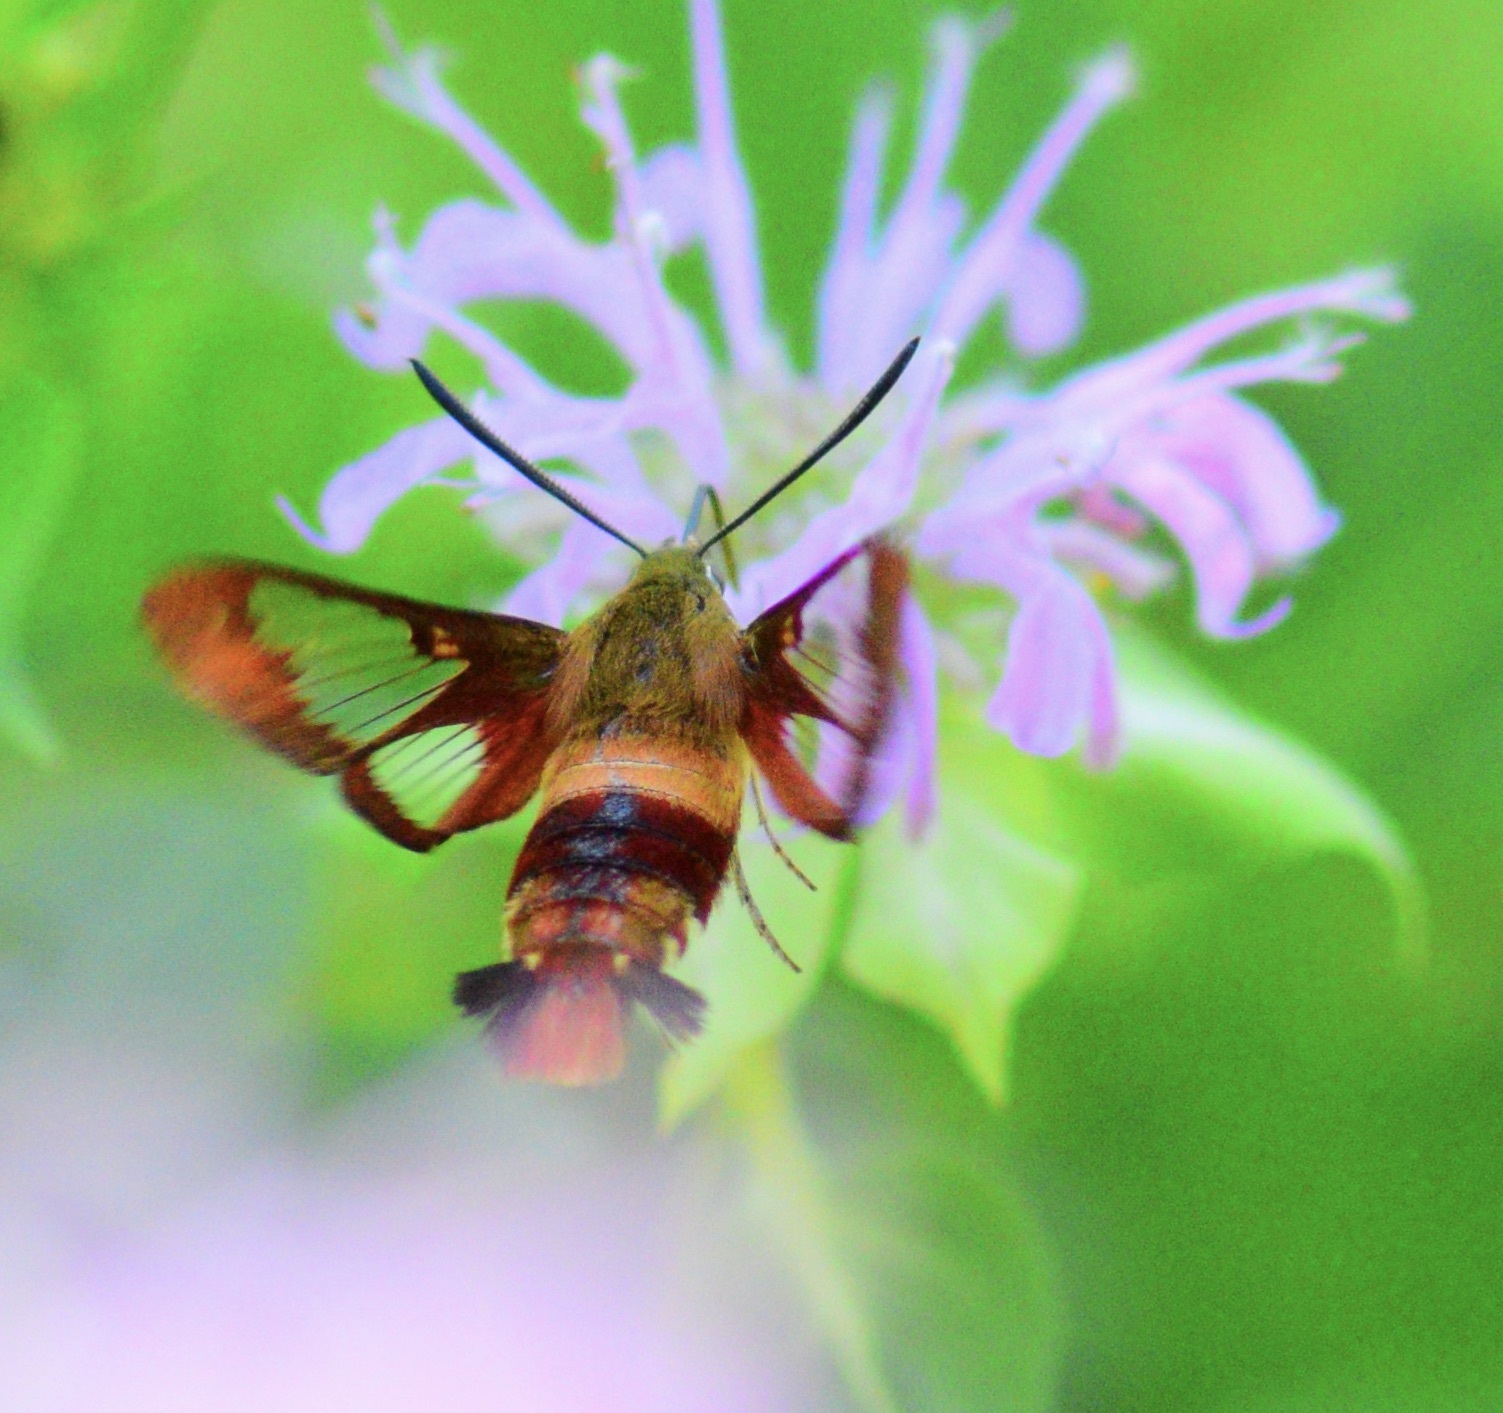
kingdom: Animalia
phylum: Arthropoda
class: Insecta
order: Lepidoptera
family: Sphingidae
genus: Hemaris
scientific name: Hemaris thysbe
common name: Common clear-wing
